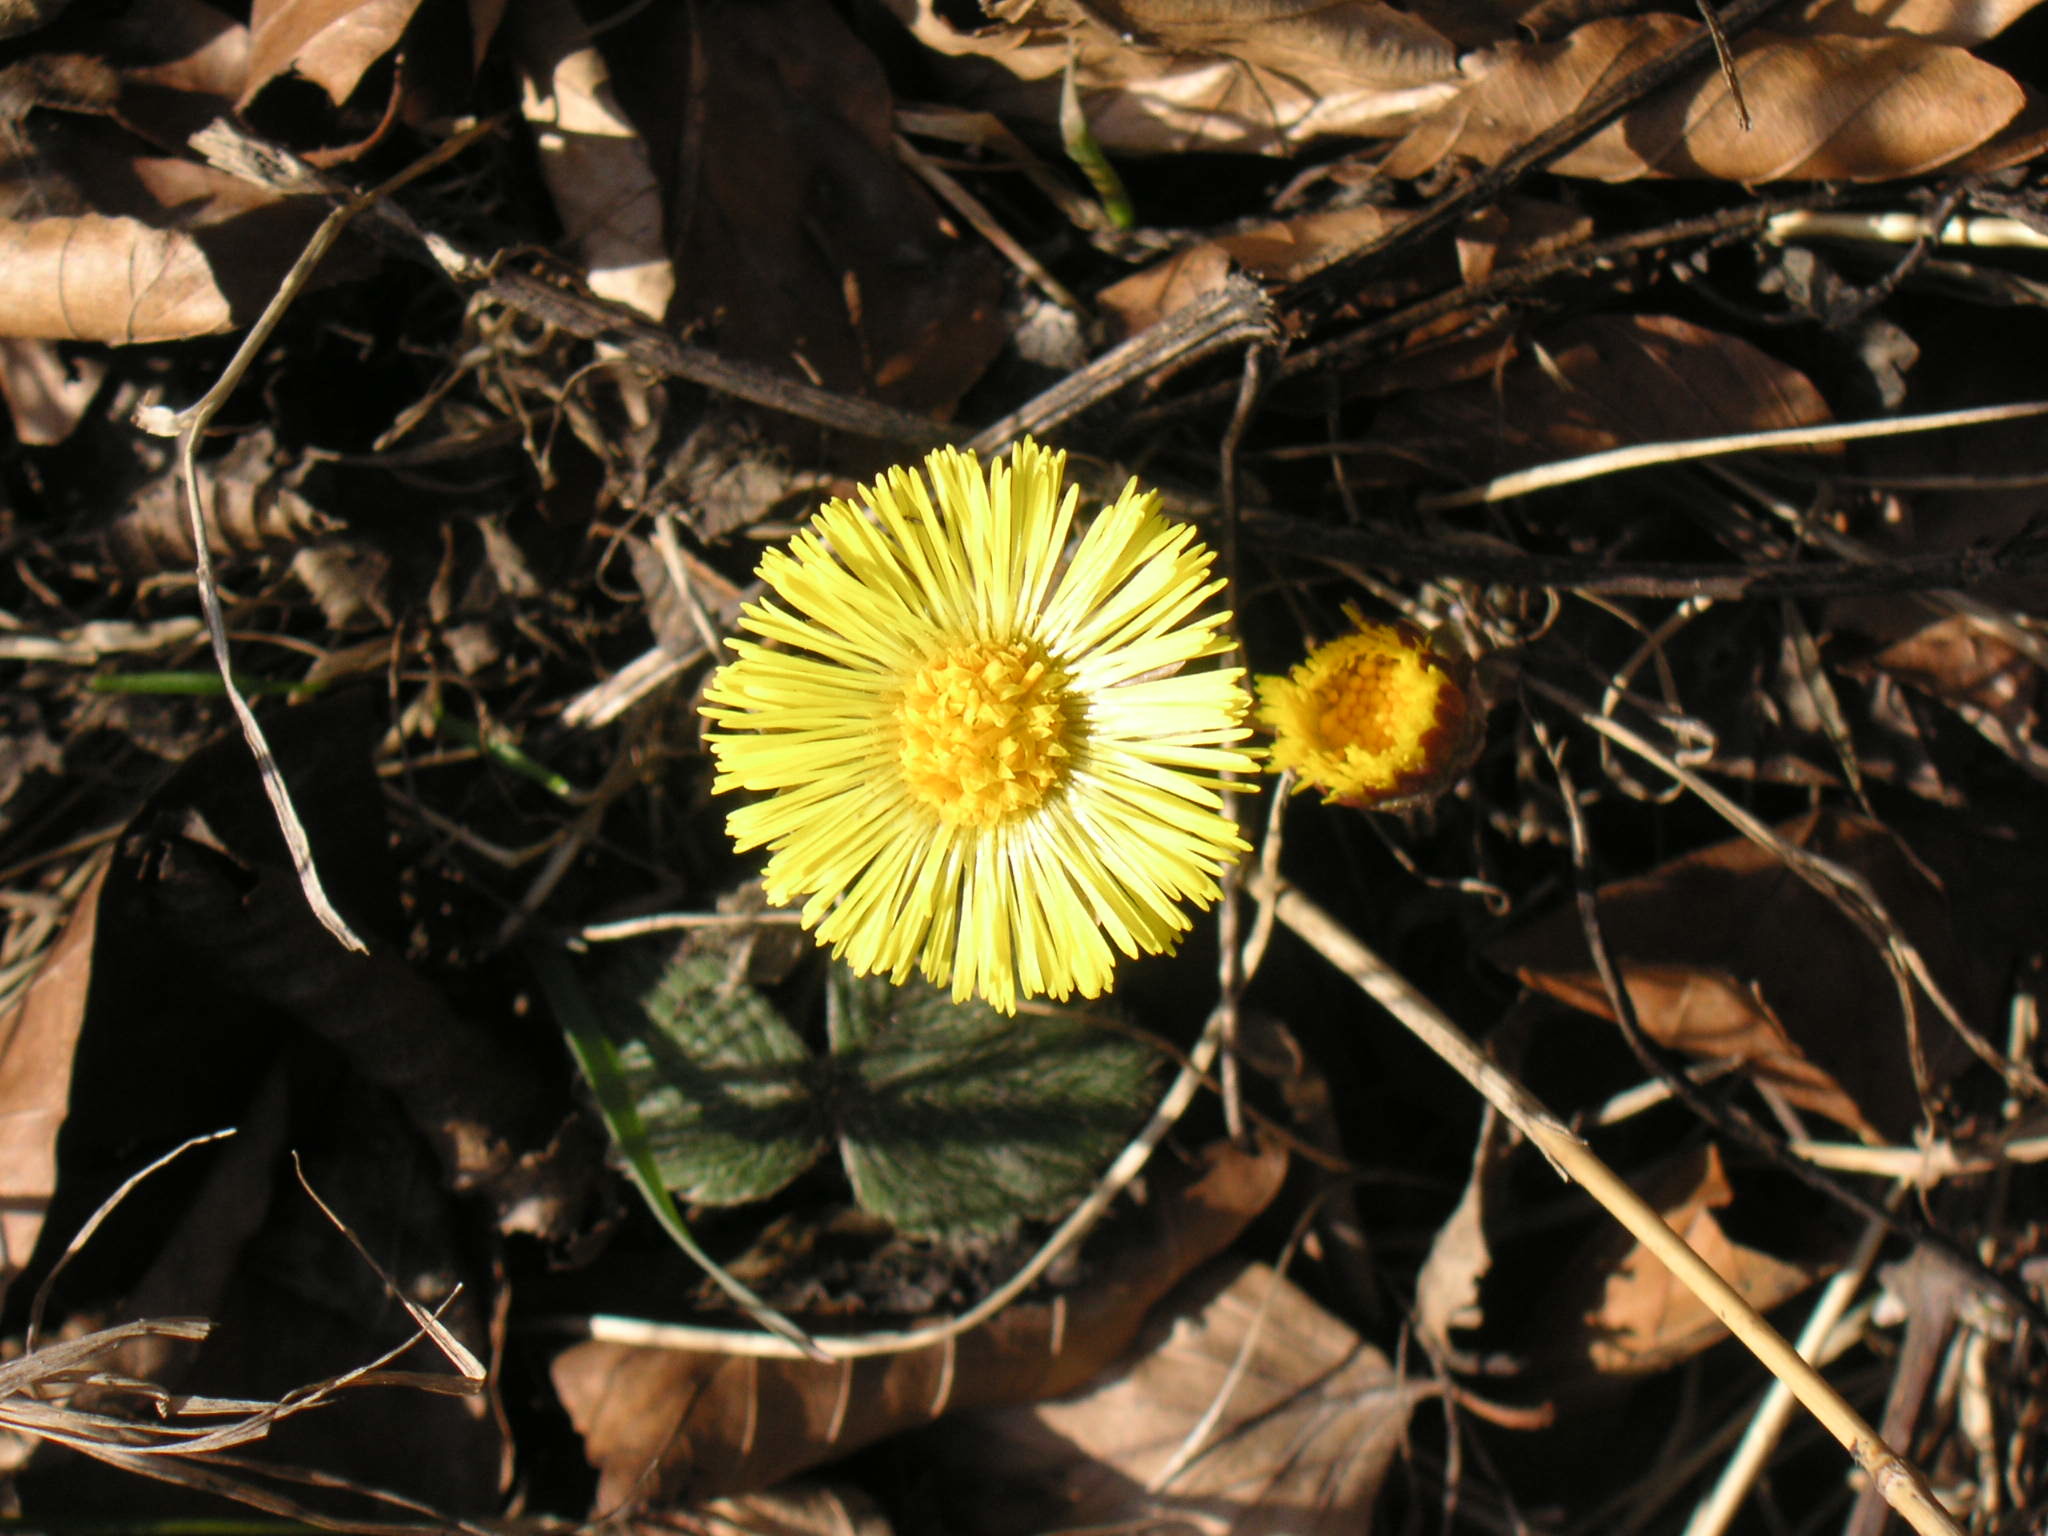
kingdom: Plantae
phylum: Tracheophyta
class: Magnoliopsida
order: Asterales
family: Asteraceae
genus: Tussilago
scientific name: Tussilago farfara
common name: Coltsfoot
